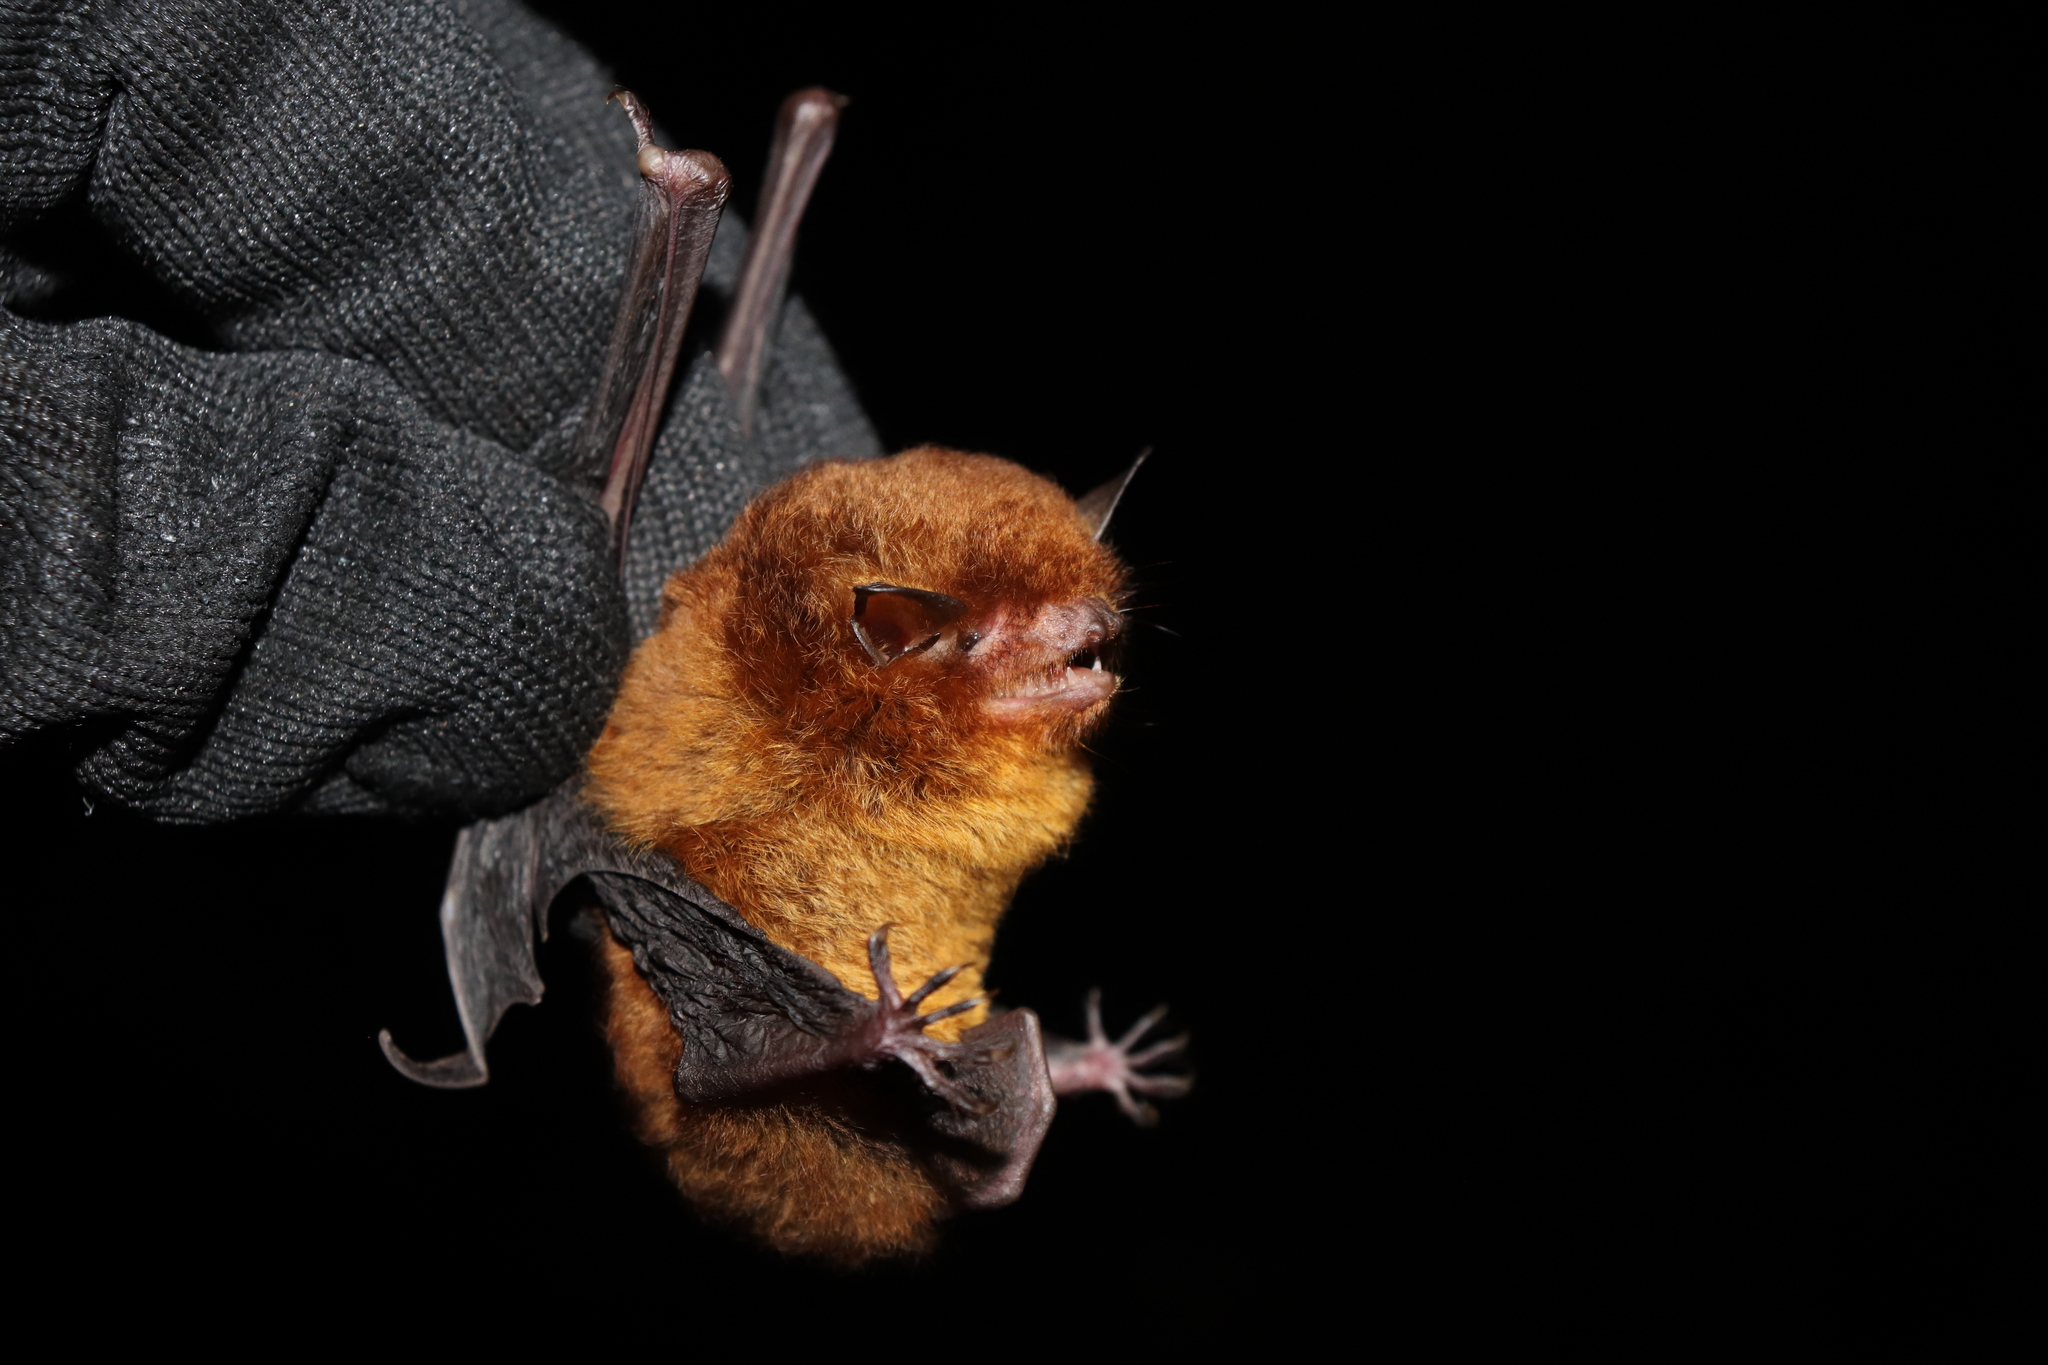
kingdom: Animalia
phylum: Chordata
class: Mammalia
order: Chiroptera
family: Vespertilionidae
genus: Myotis
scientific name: Myotis ruber
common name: Red myotis
